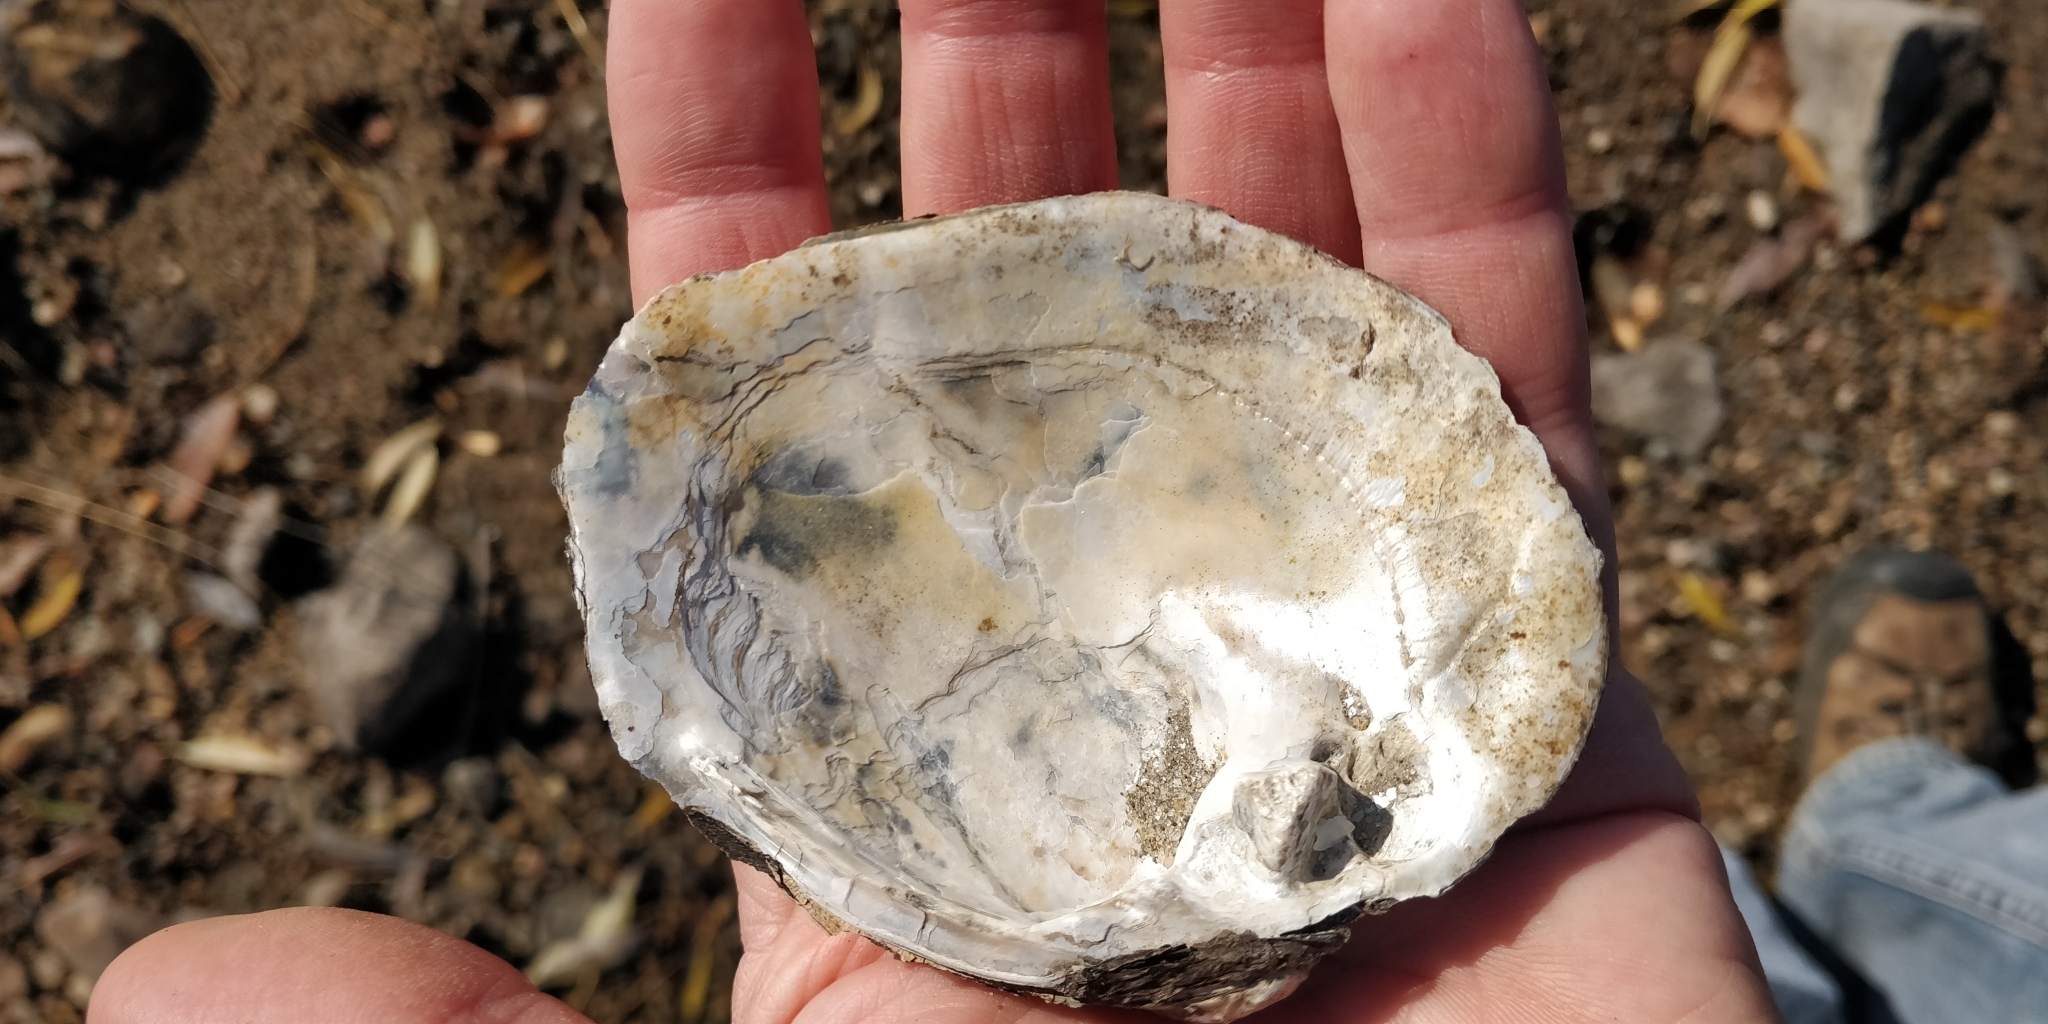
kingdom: Animalia
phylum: Mollusca
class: Bivalvia
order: Unionida
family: Unionidae
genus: Quadrula
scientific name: Quadrula quadrula
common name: Mapleleaf
